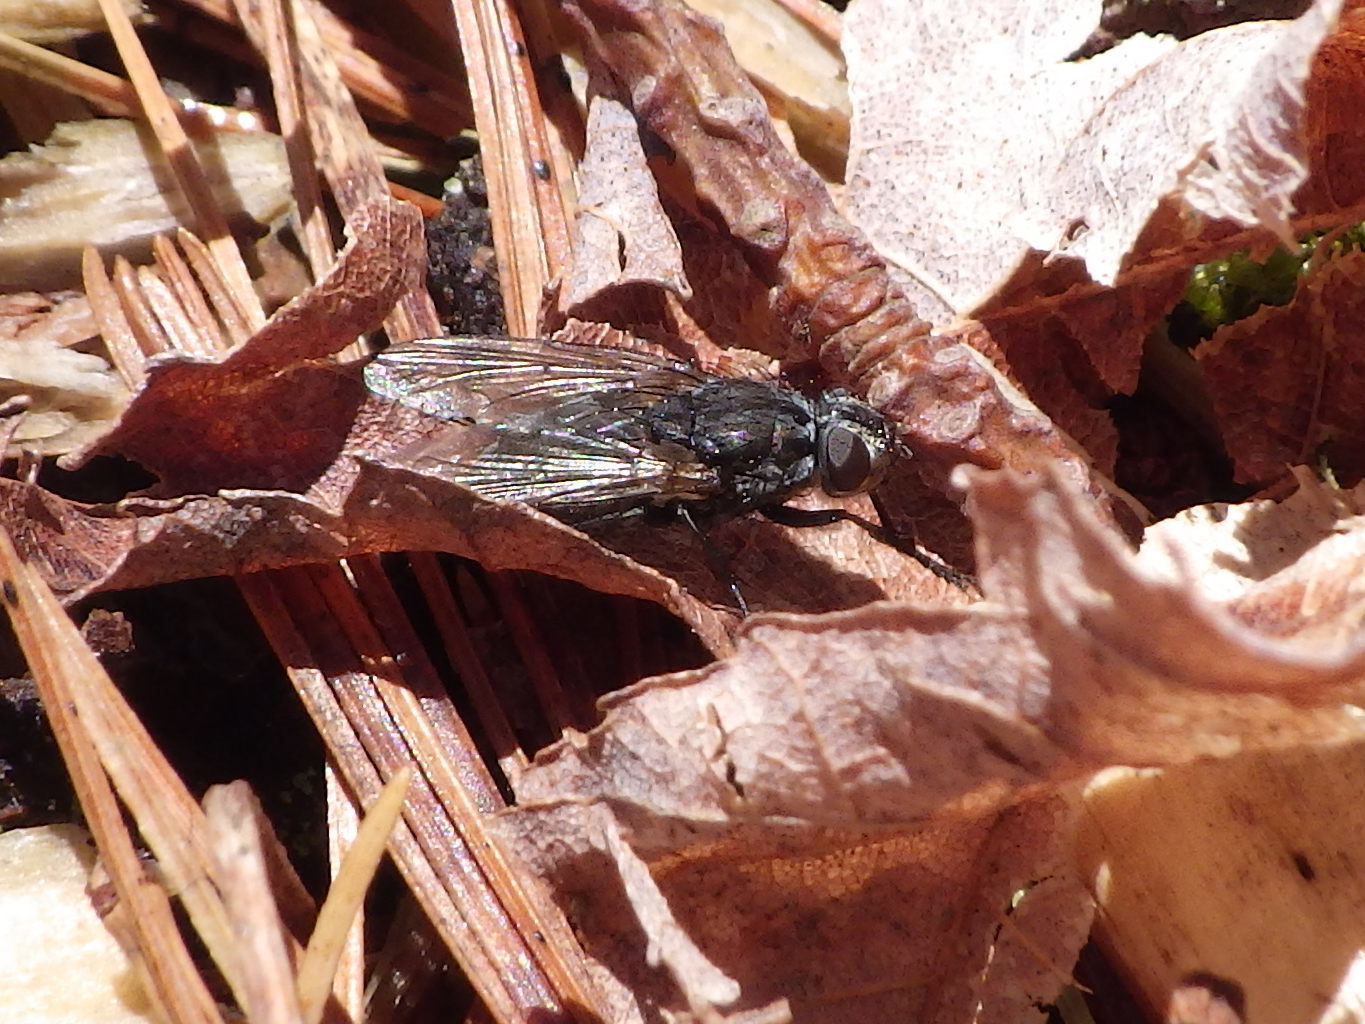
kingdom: Animalia
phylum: Arthropoda
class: Insecta
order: Diptera
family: Polleniidae
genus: Pollenia
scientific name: Pollenia vagabunda
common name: Vagabund cluster fly
